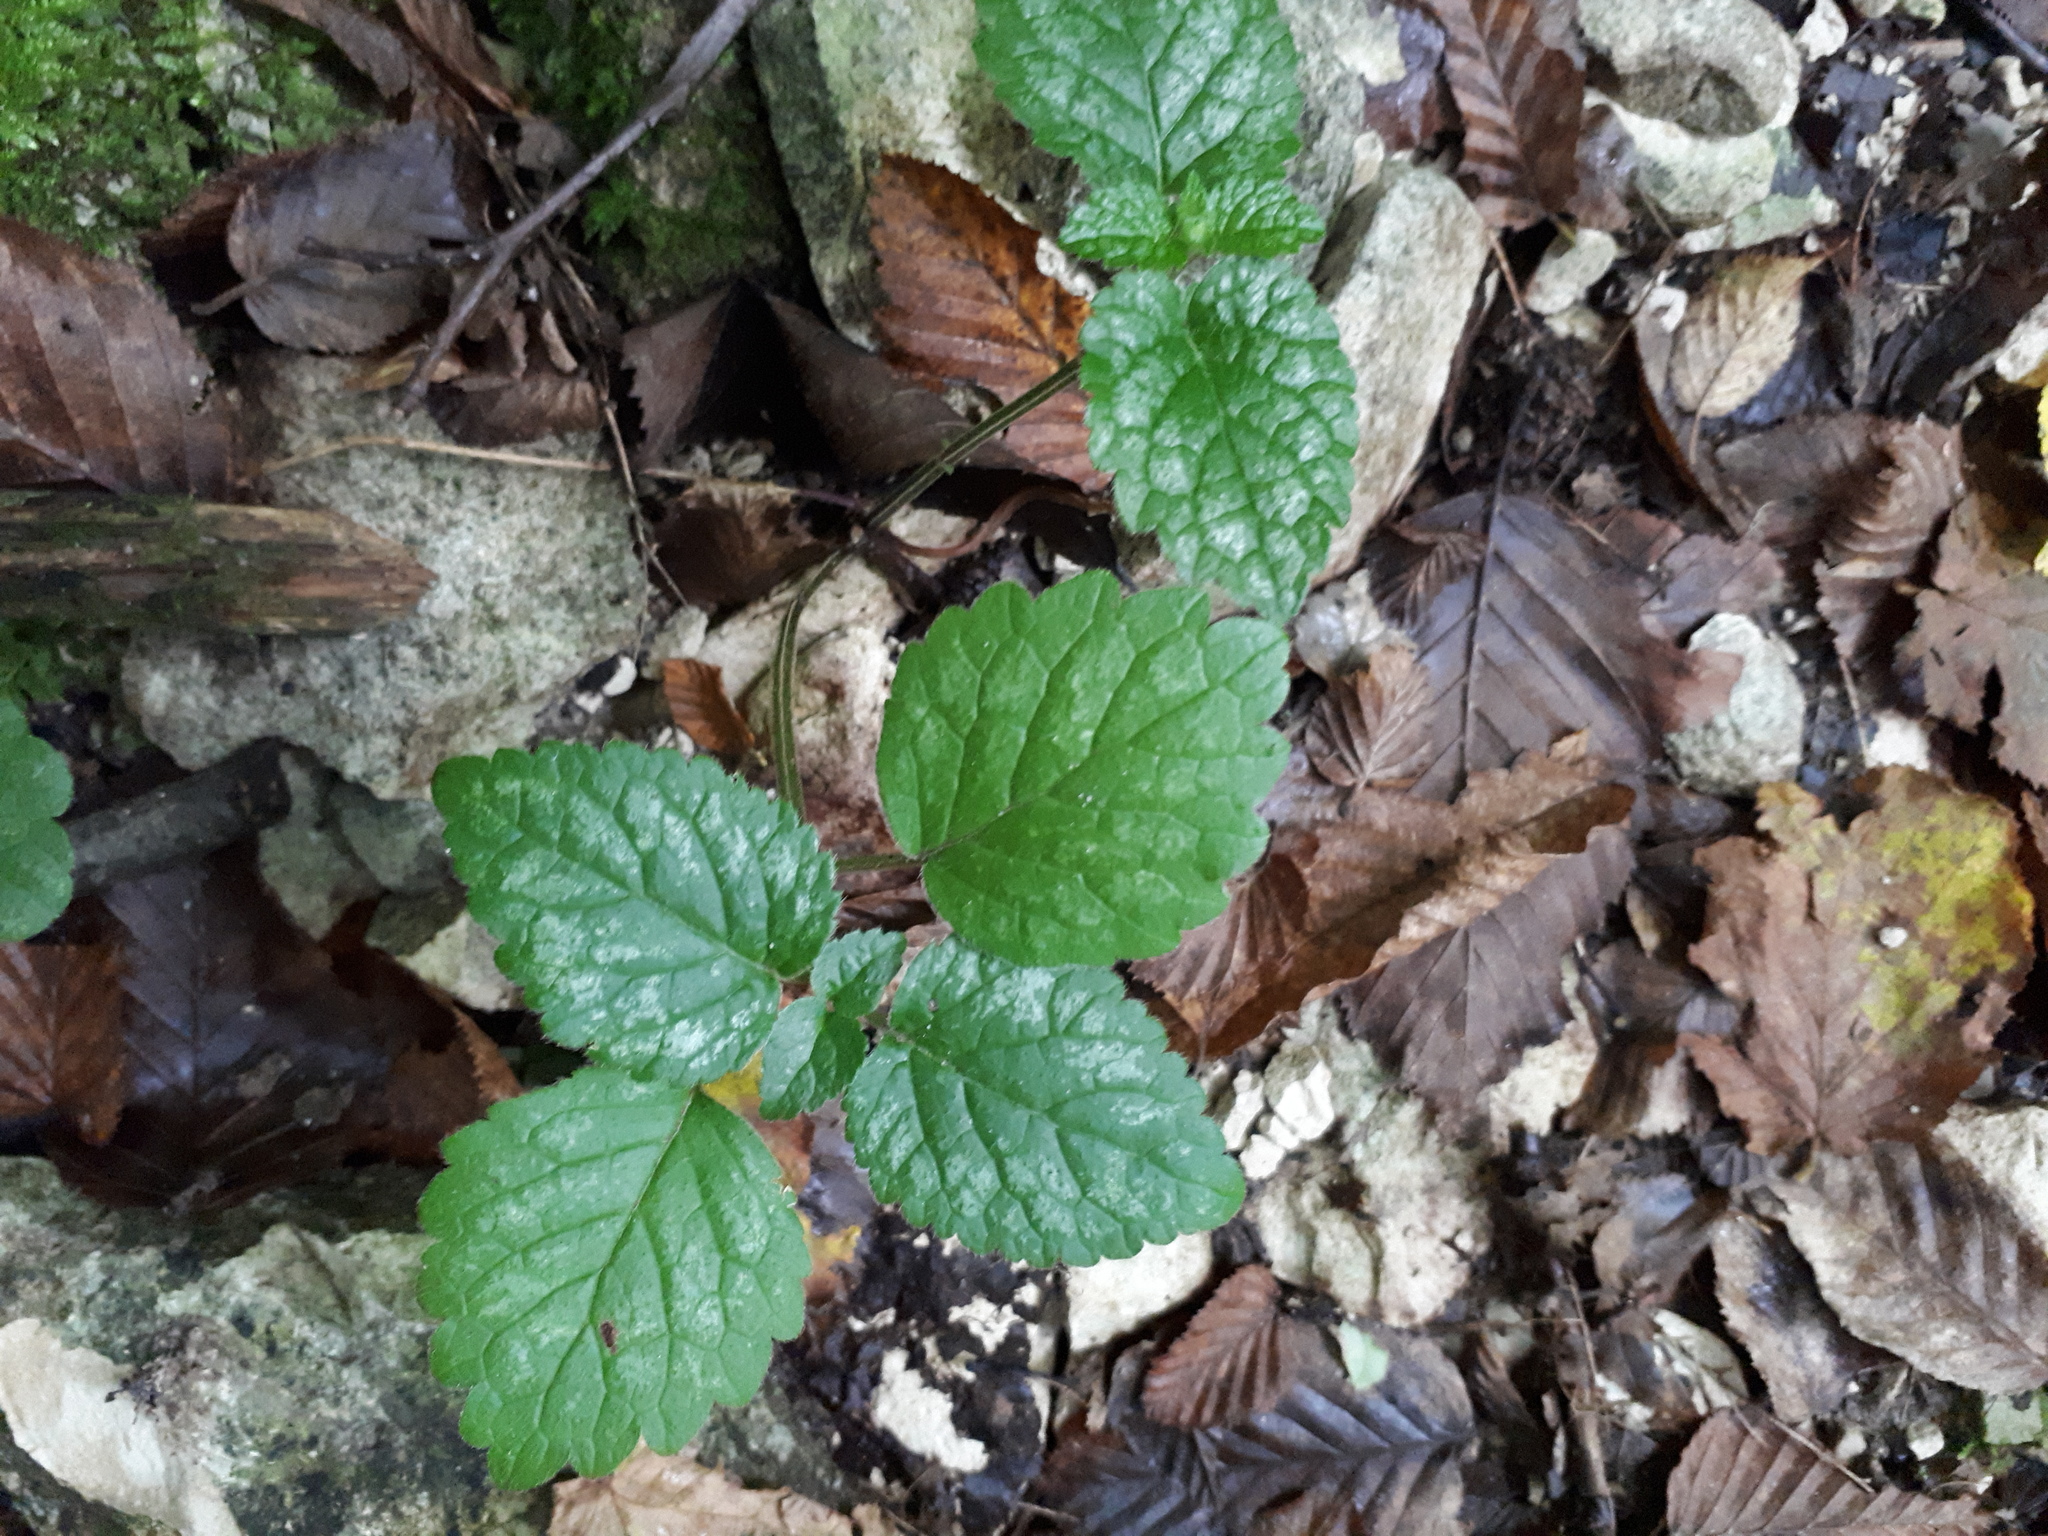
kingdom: Plantae
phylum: Tracheophyta
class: Magnoliopsida
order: Lamiales
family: Lamiaceae
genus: Lamium
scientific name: Lamium galeobdolon
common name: Yellow archangel
